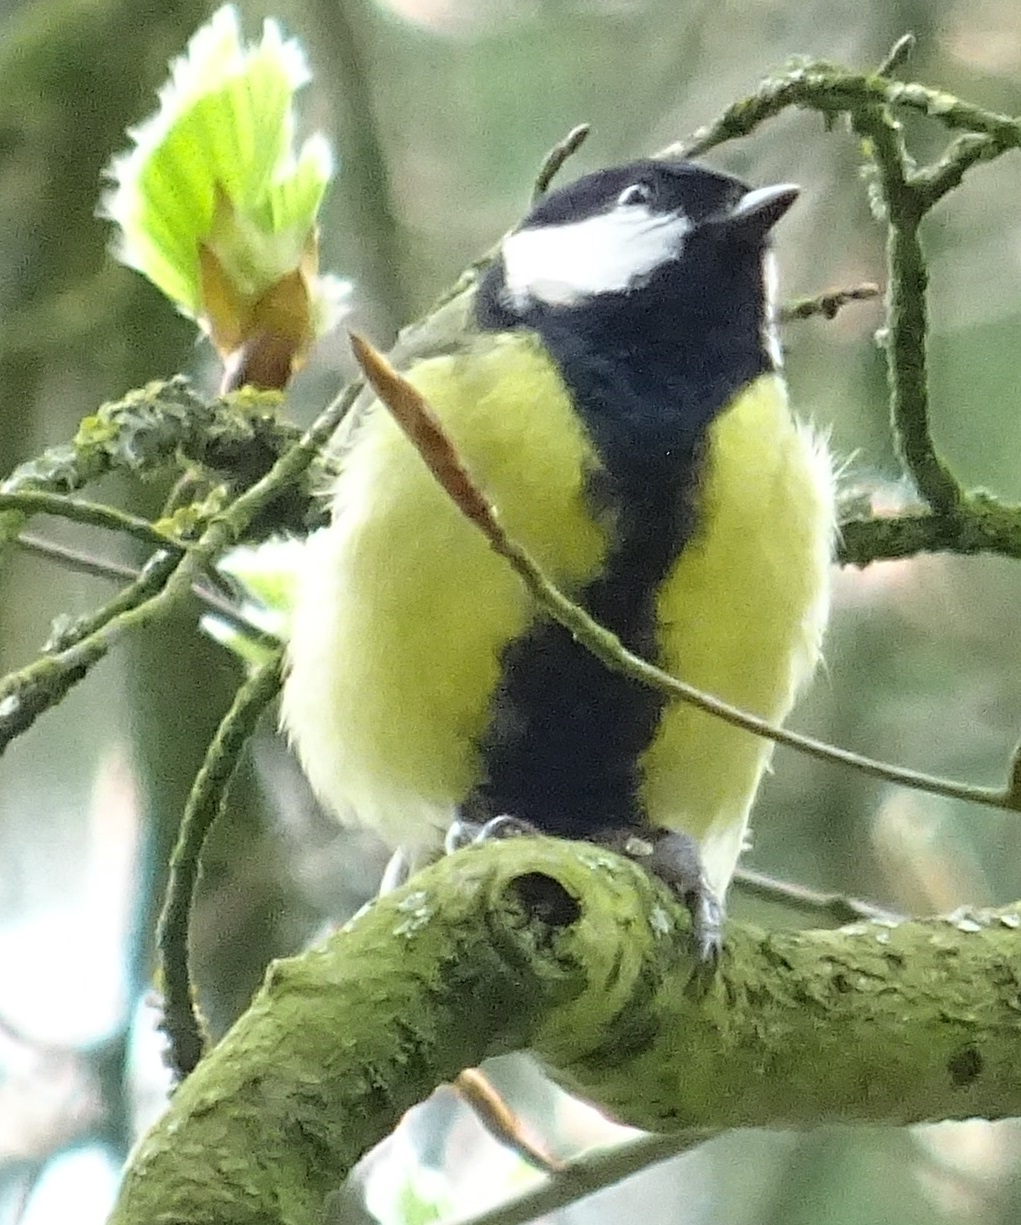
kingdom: Animalia
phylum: Chordata
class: Aves
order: Passeriformes
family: Paridae
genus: Parus
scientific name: Parus major
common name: Great tit
